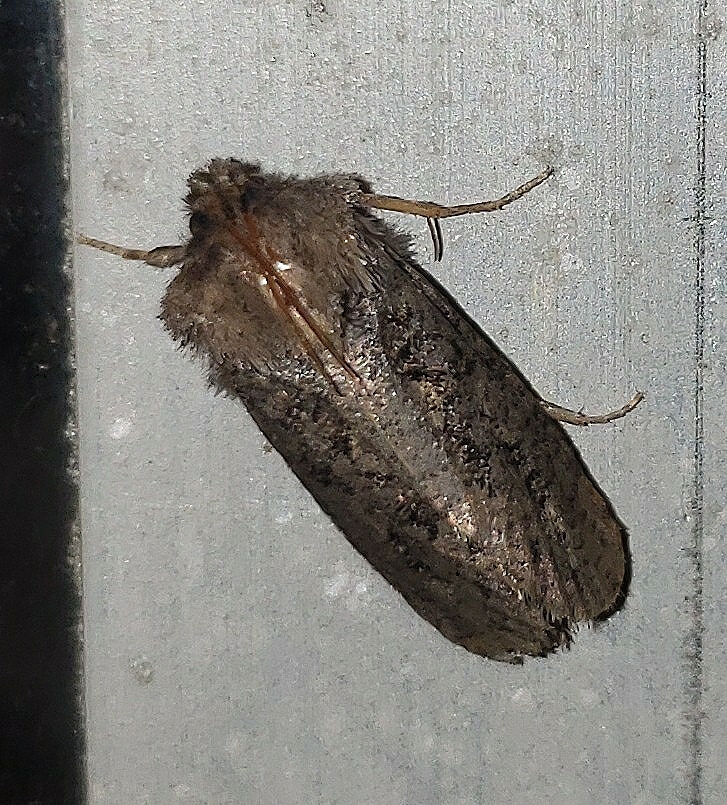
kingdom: Animalia
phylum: Arthropoda
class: Insecta
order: Lepidoptera
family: Tineidae
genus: Acrolophus
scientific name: Acrolophus arcanella
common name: Arcane grass tubeworm moth
